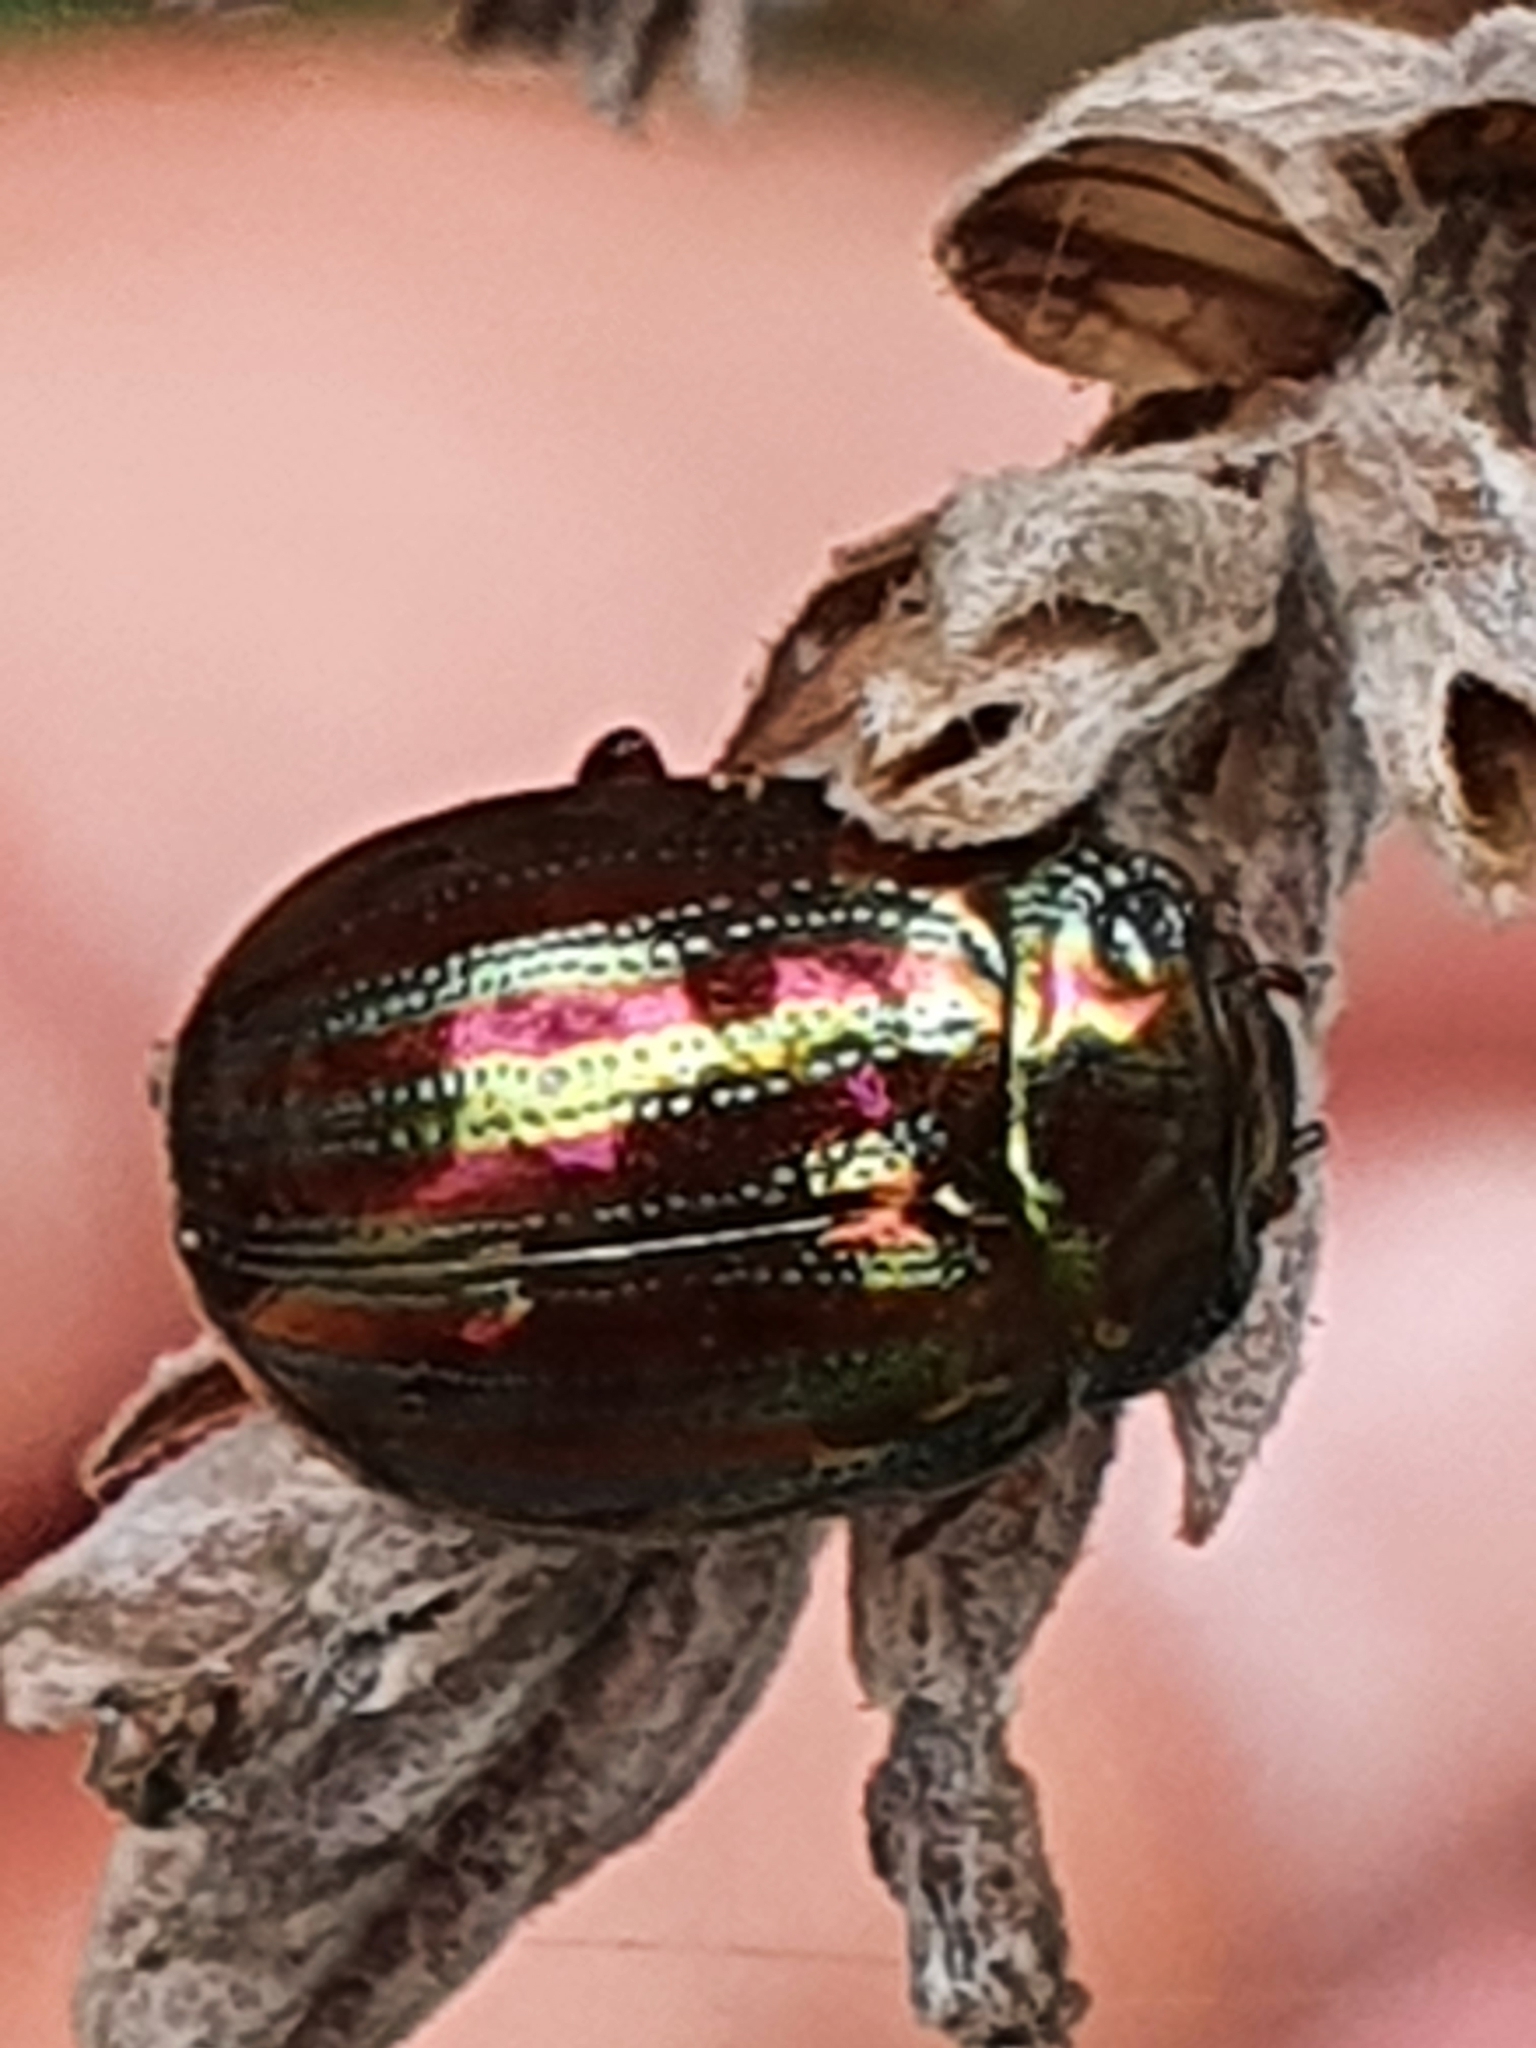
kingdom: Animalia
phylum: Arthropoda
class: Insecta
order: Coleoptera
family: Chrysomelidae
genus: Chrysolina
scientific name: Chrysolina americana
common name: Rosemary beetle
